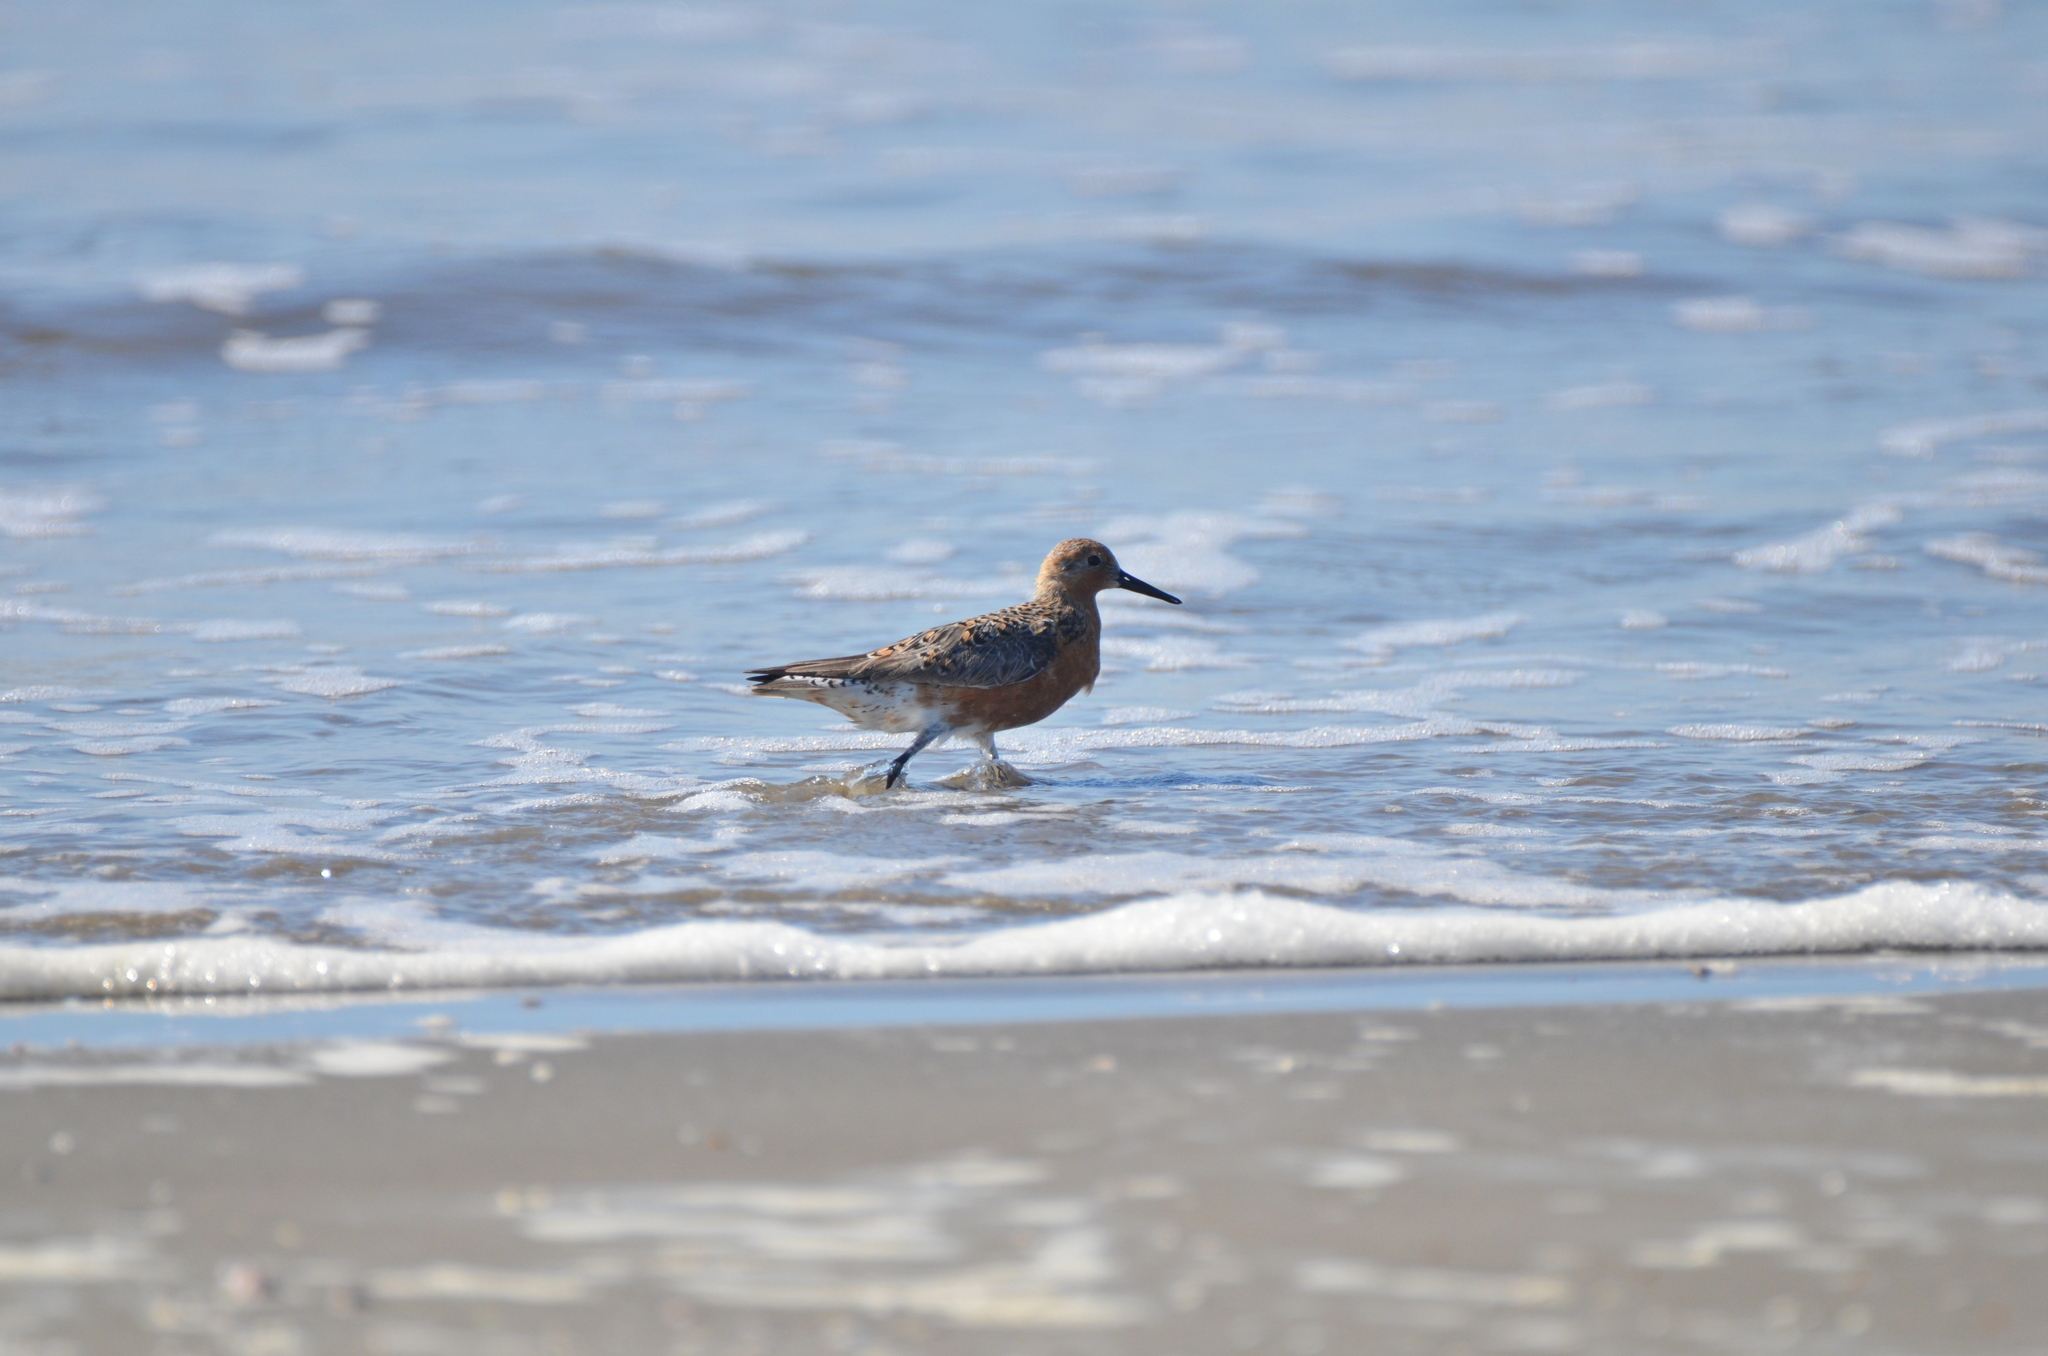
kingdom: Animalia
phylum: Chordata
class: Aves
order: Charadriiformes
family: Scolopacidae
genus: Calidris
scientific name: Calidris canutus
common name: Red knot
